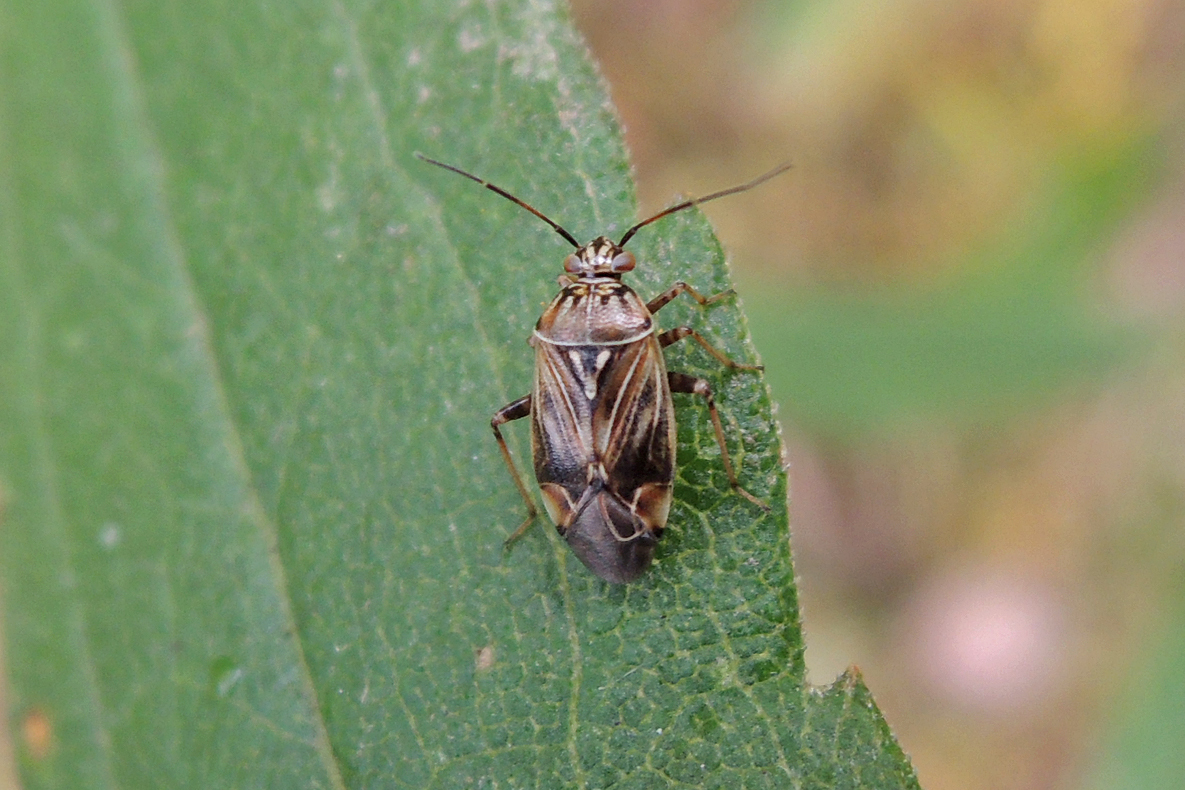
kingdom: Animalia
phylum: Arthropoda
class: Insecta
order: Hemiptera
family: Miridae
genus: Lygus
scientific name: Lygus lineolaris
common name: North american tarnished plant bug
